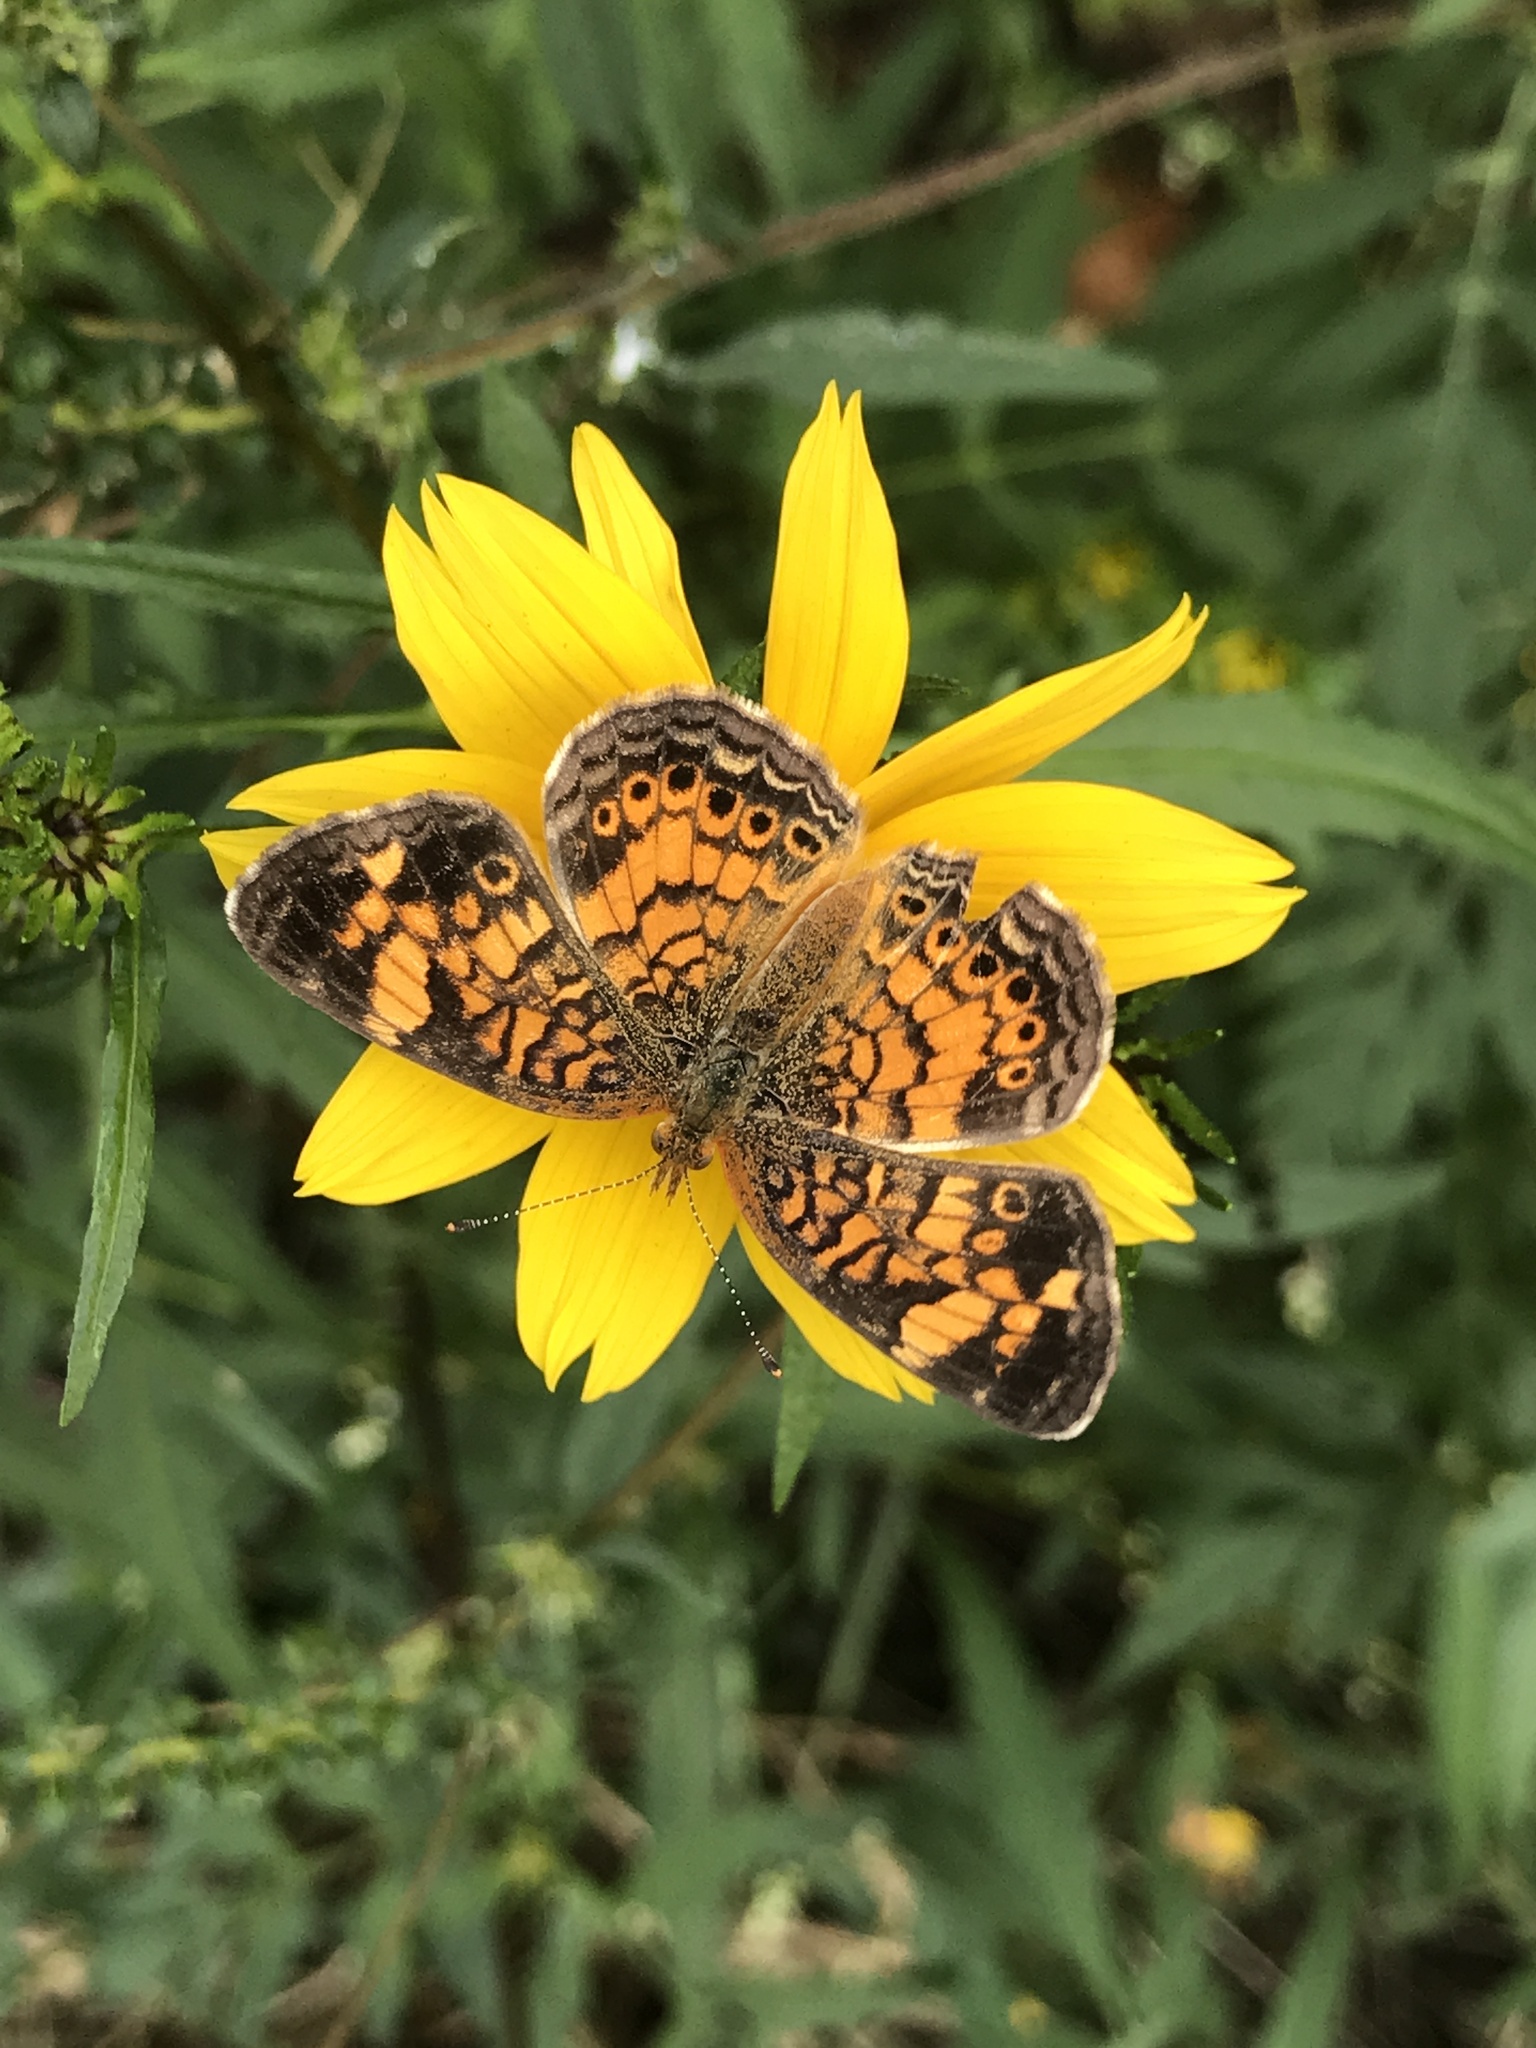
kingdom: Animalia
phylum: Arthropoda
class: Insecta
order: Lepidoptera
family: Nymphalidae
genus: Phyciodes
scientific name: Phyciodes tharos
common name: Pearl crescent
